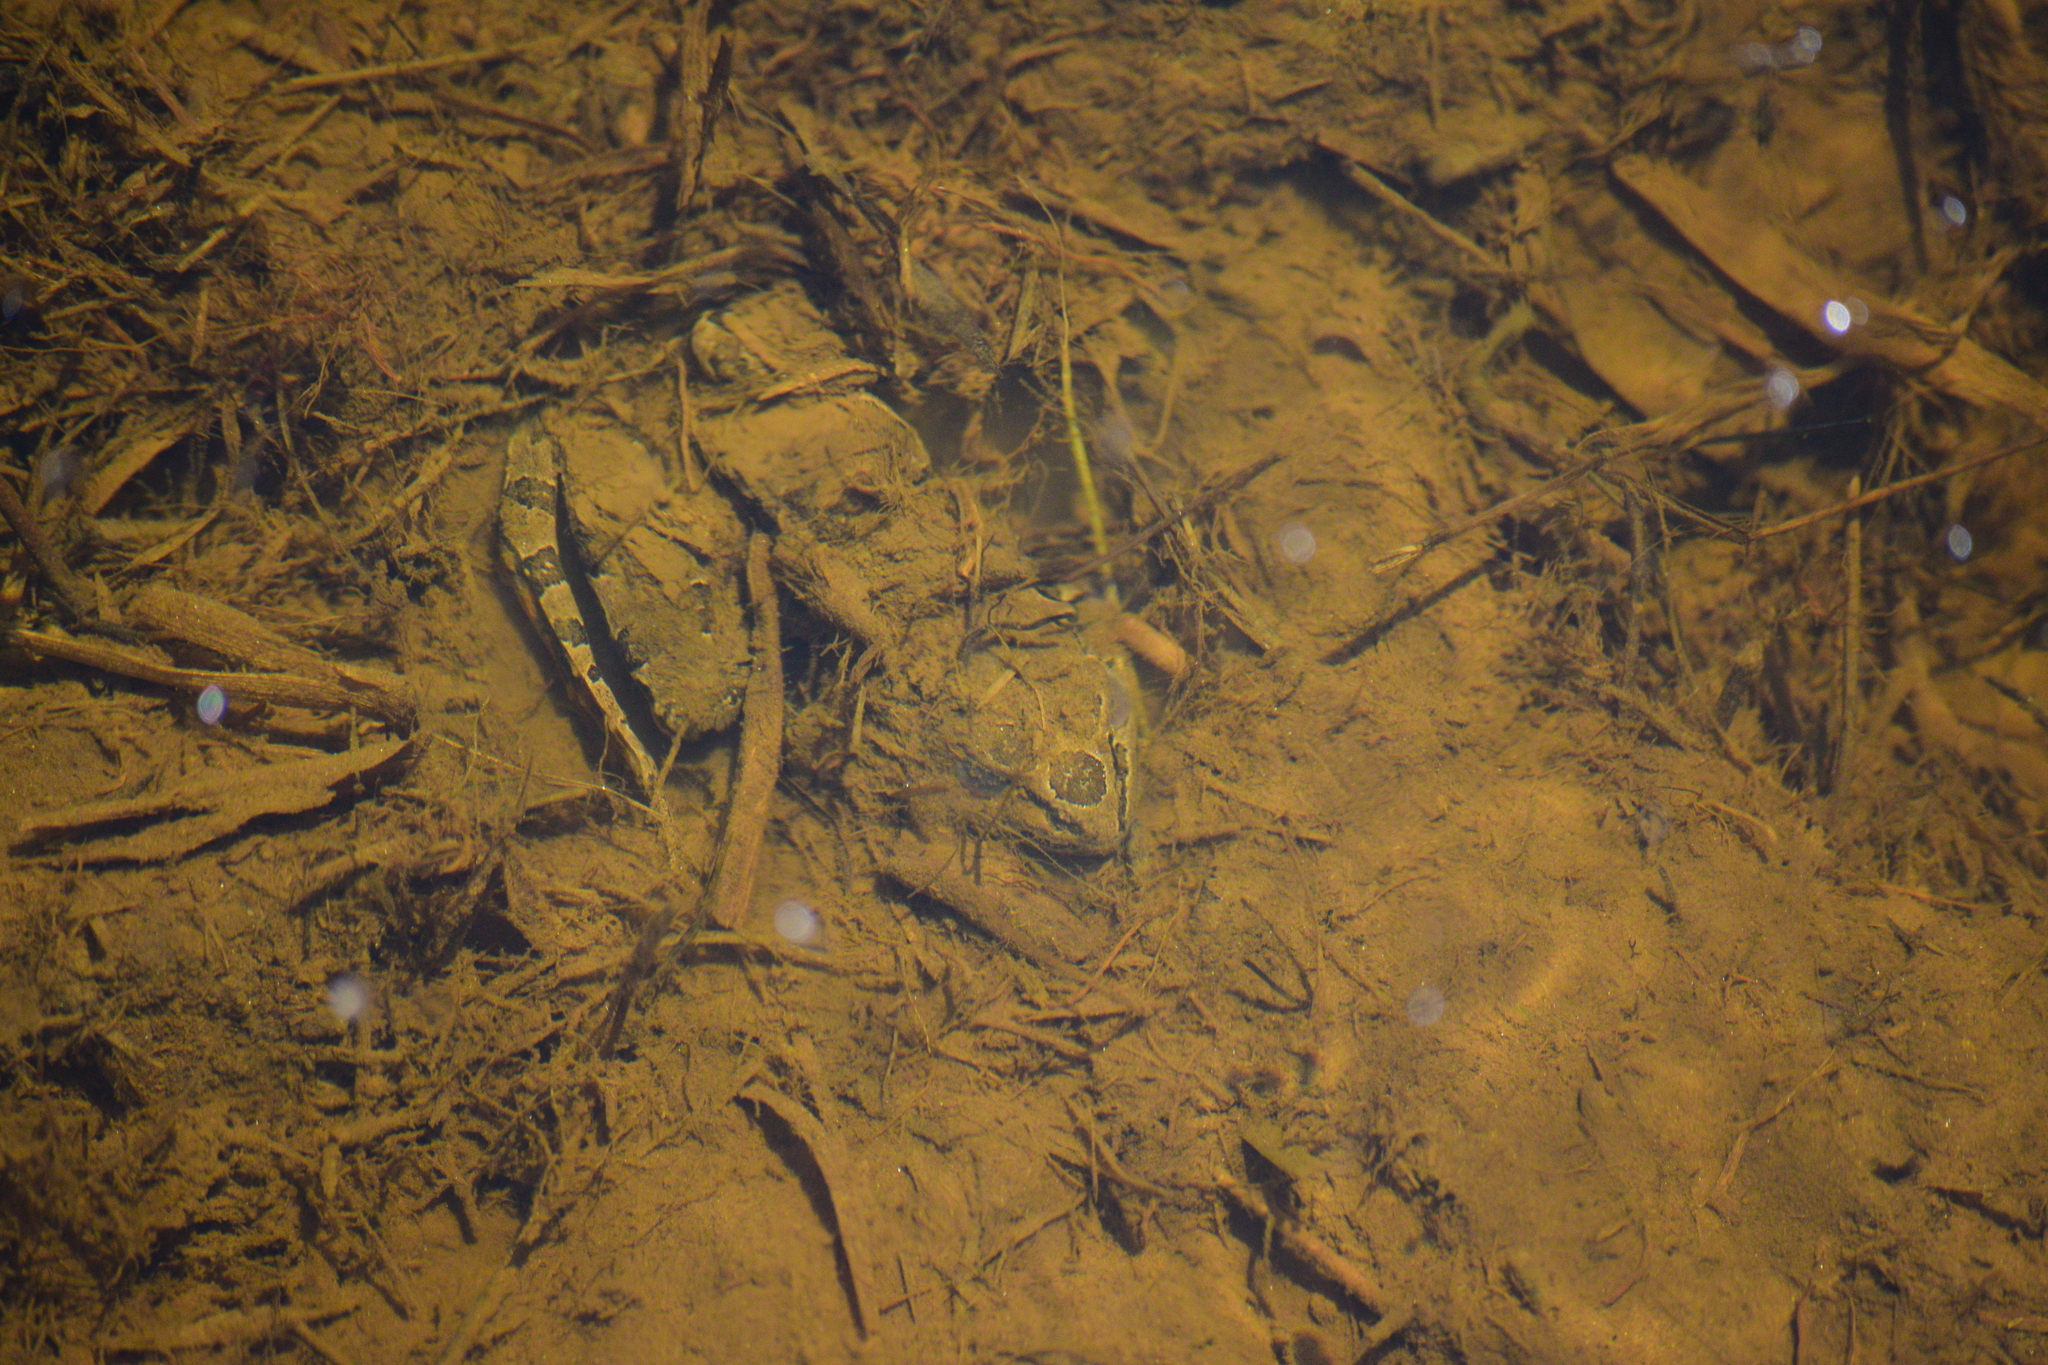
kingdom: Animalia
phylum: Chordata
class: Amphibia
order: Anura
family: Ranidae
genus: Lithobates
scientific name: Lithobates palustris
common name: Pickerel frog
